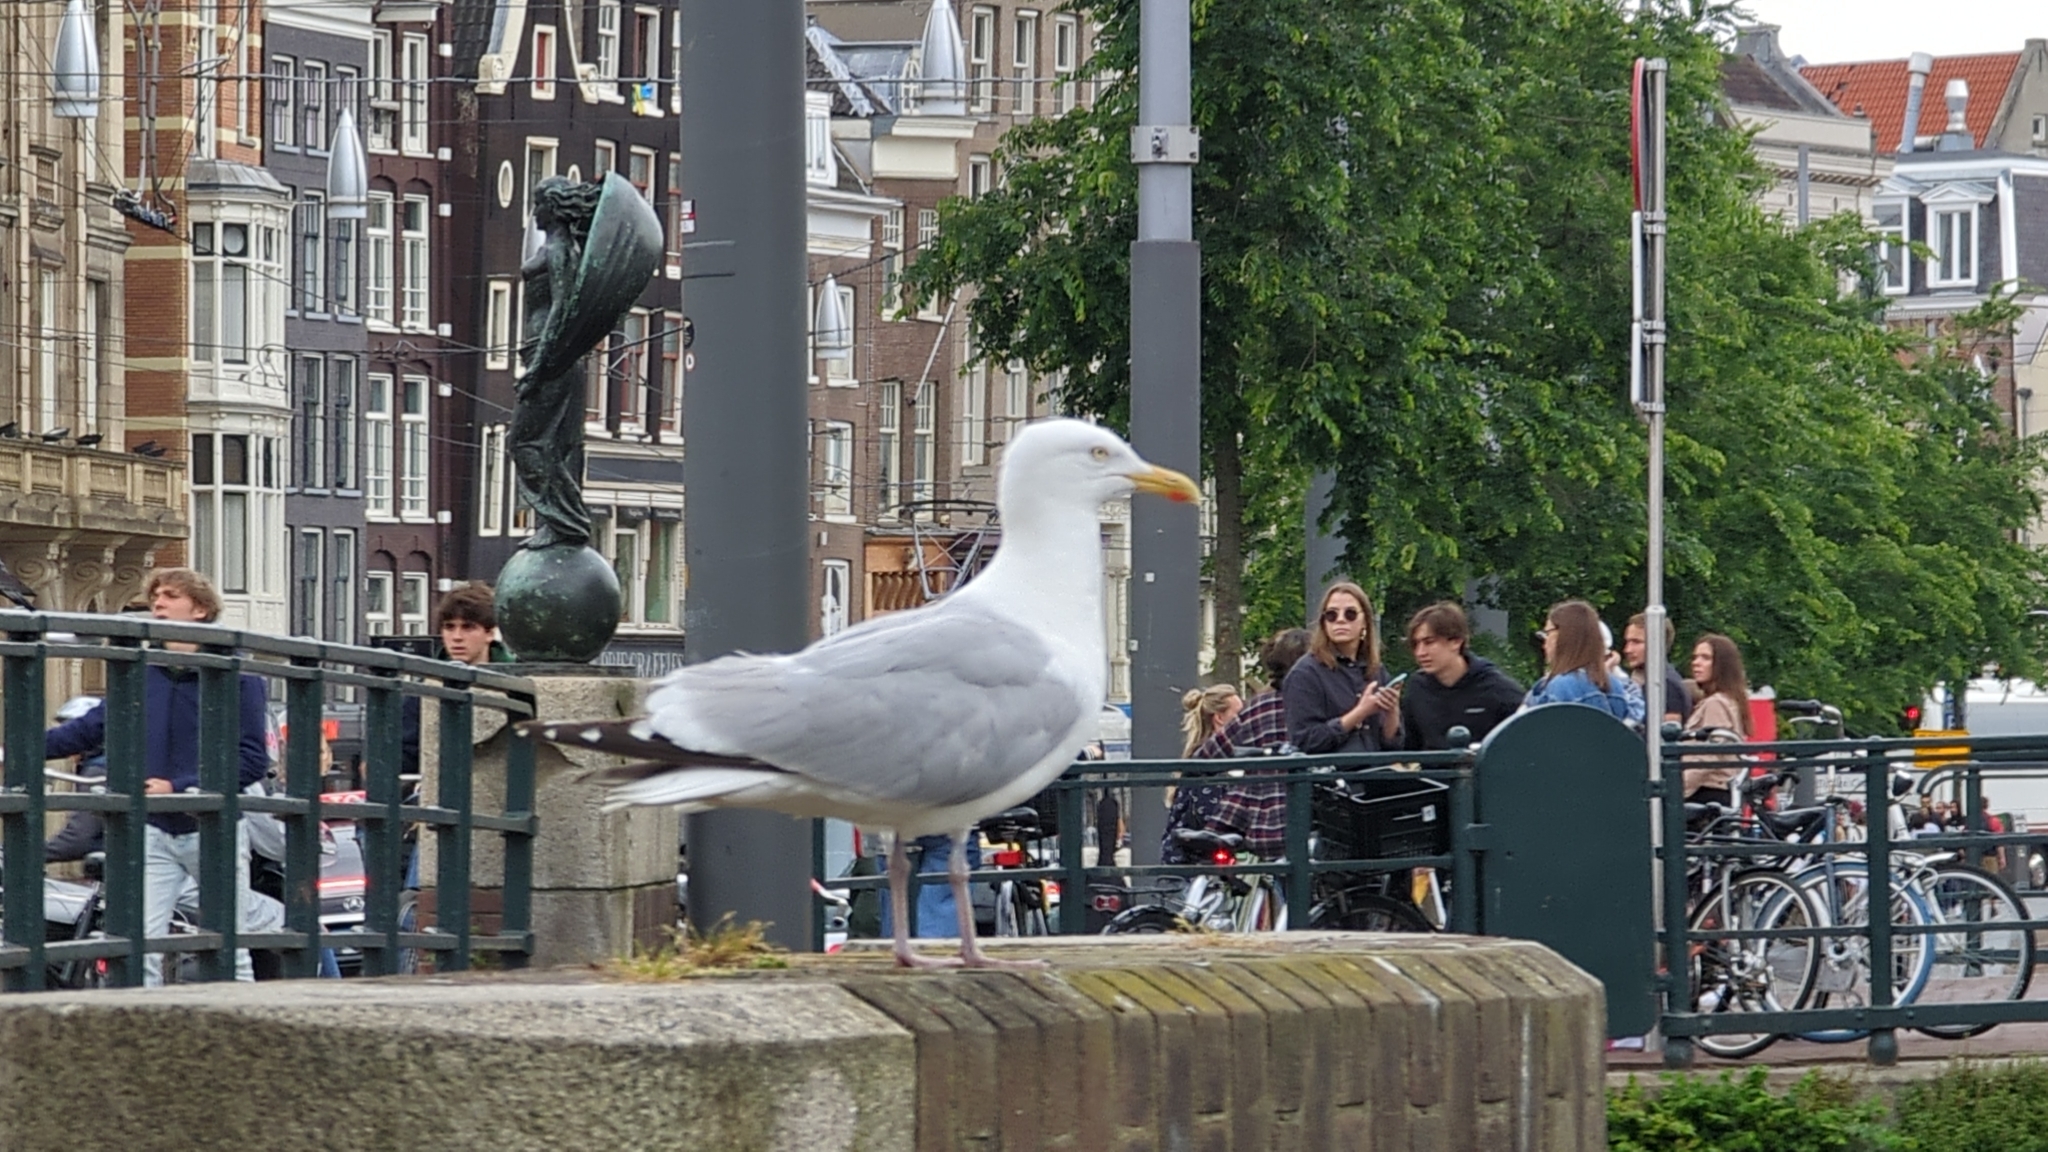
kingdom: Animalia
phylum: Chordata
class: Aves
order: Charadriiformes
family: Laridae
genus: Larus
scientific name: Larus argentatus
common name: Herring gull
